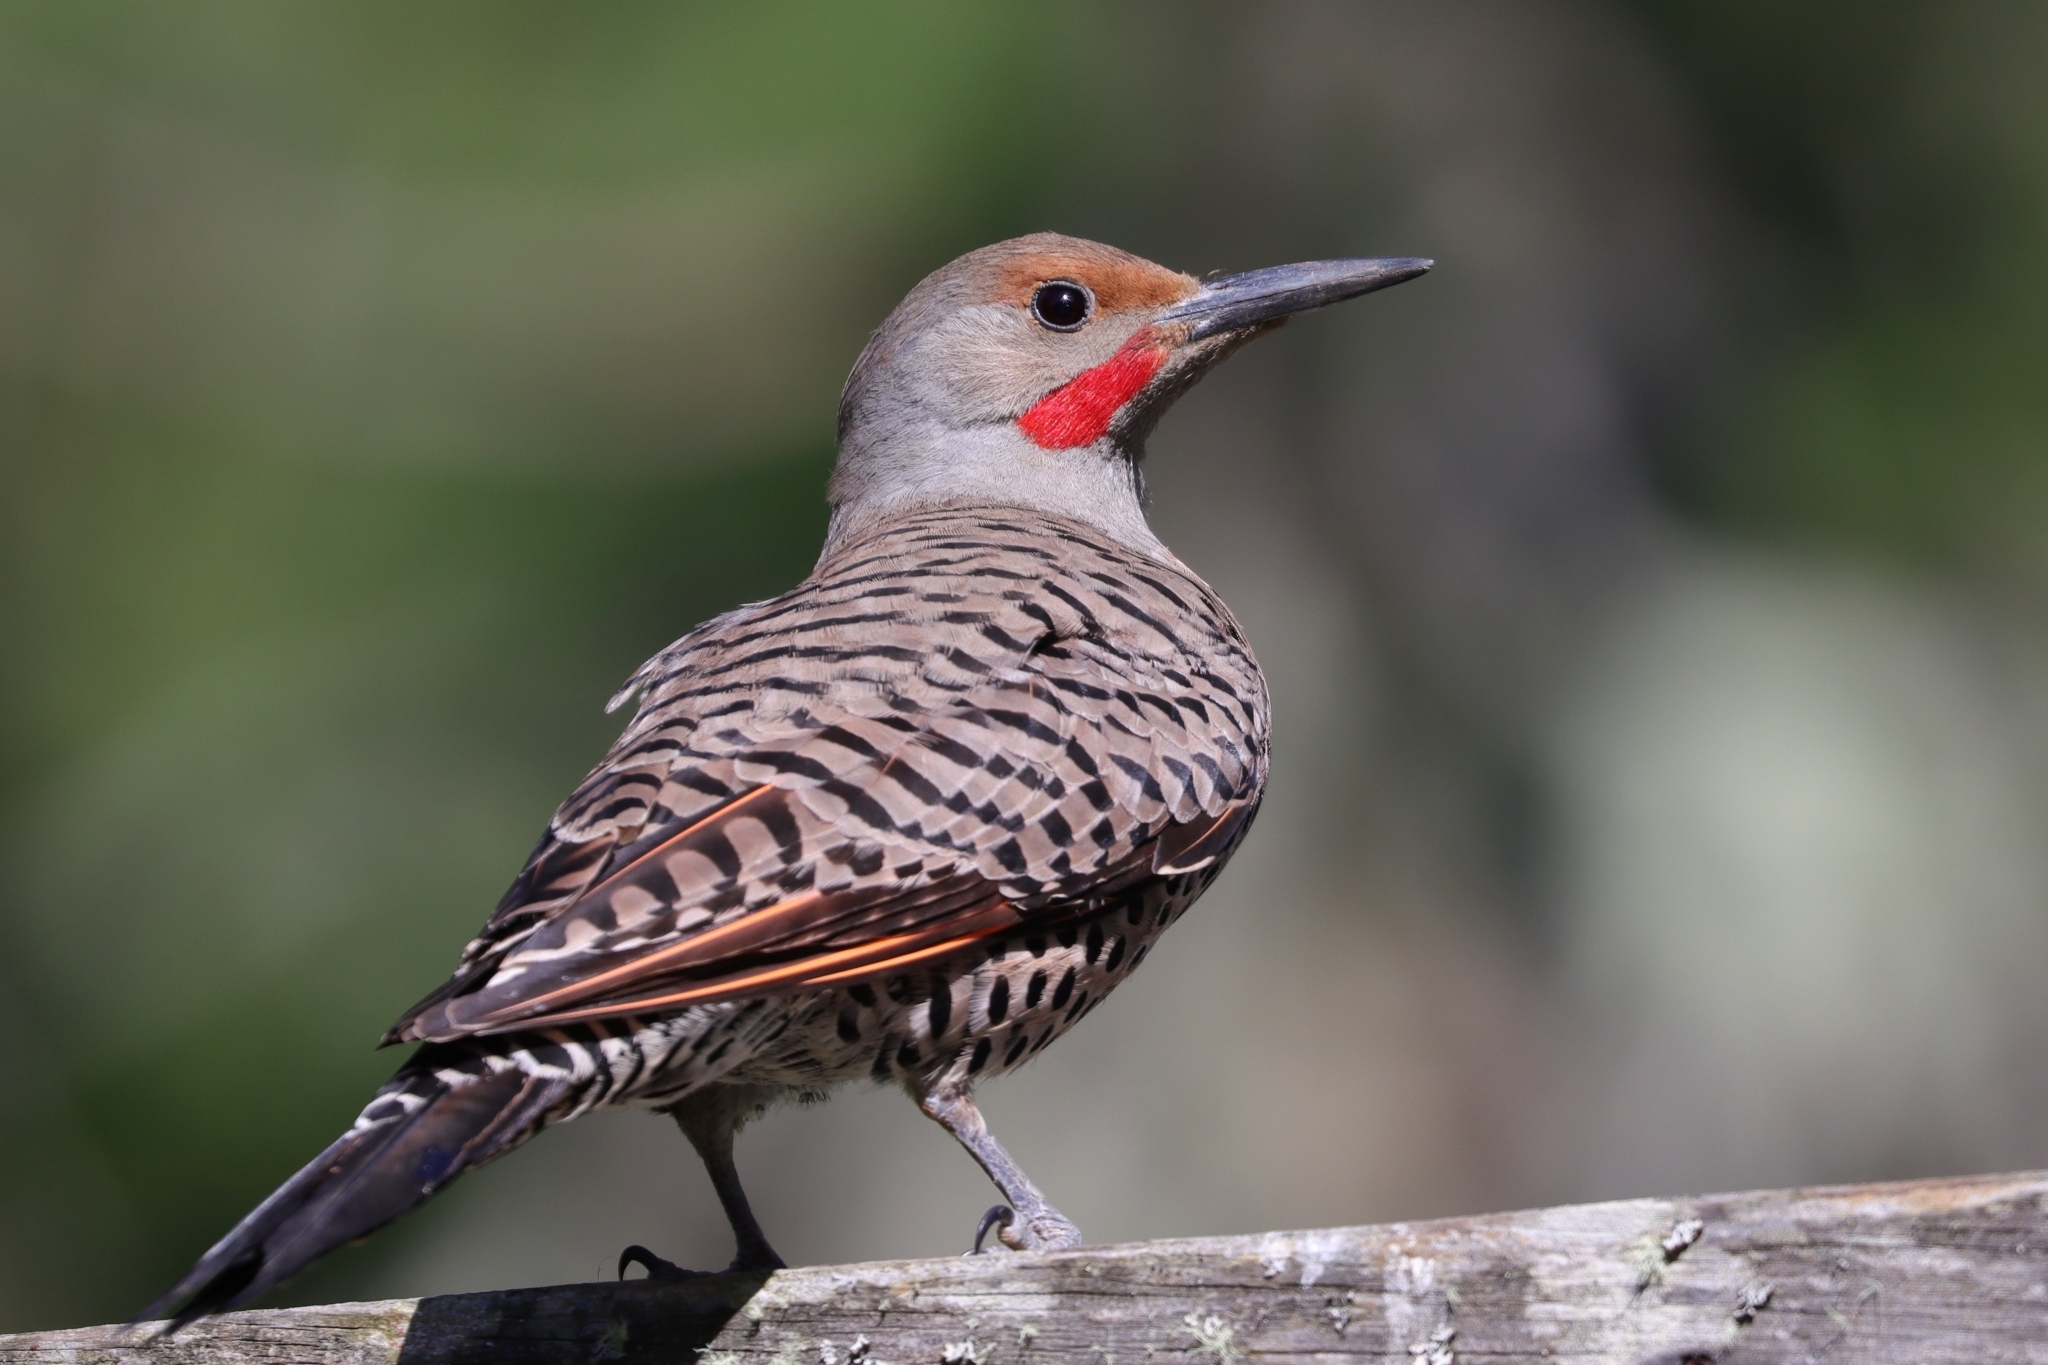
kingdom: Animalia
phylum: Chordata
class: Aves
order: Piciformes
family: Picidae
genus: Colaptes
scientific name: Colaptes auratus
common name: Northern flicker
